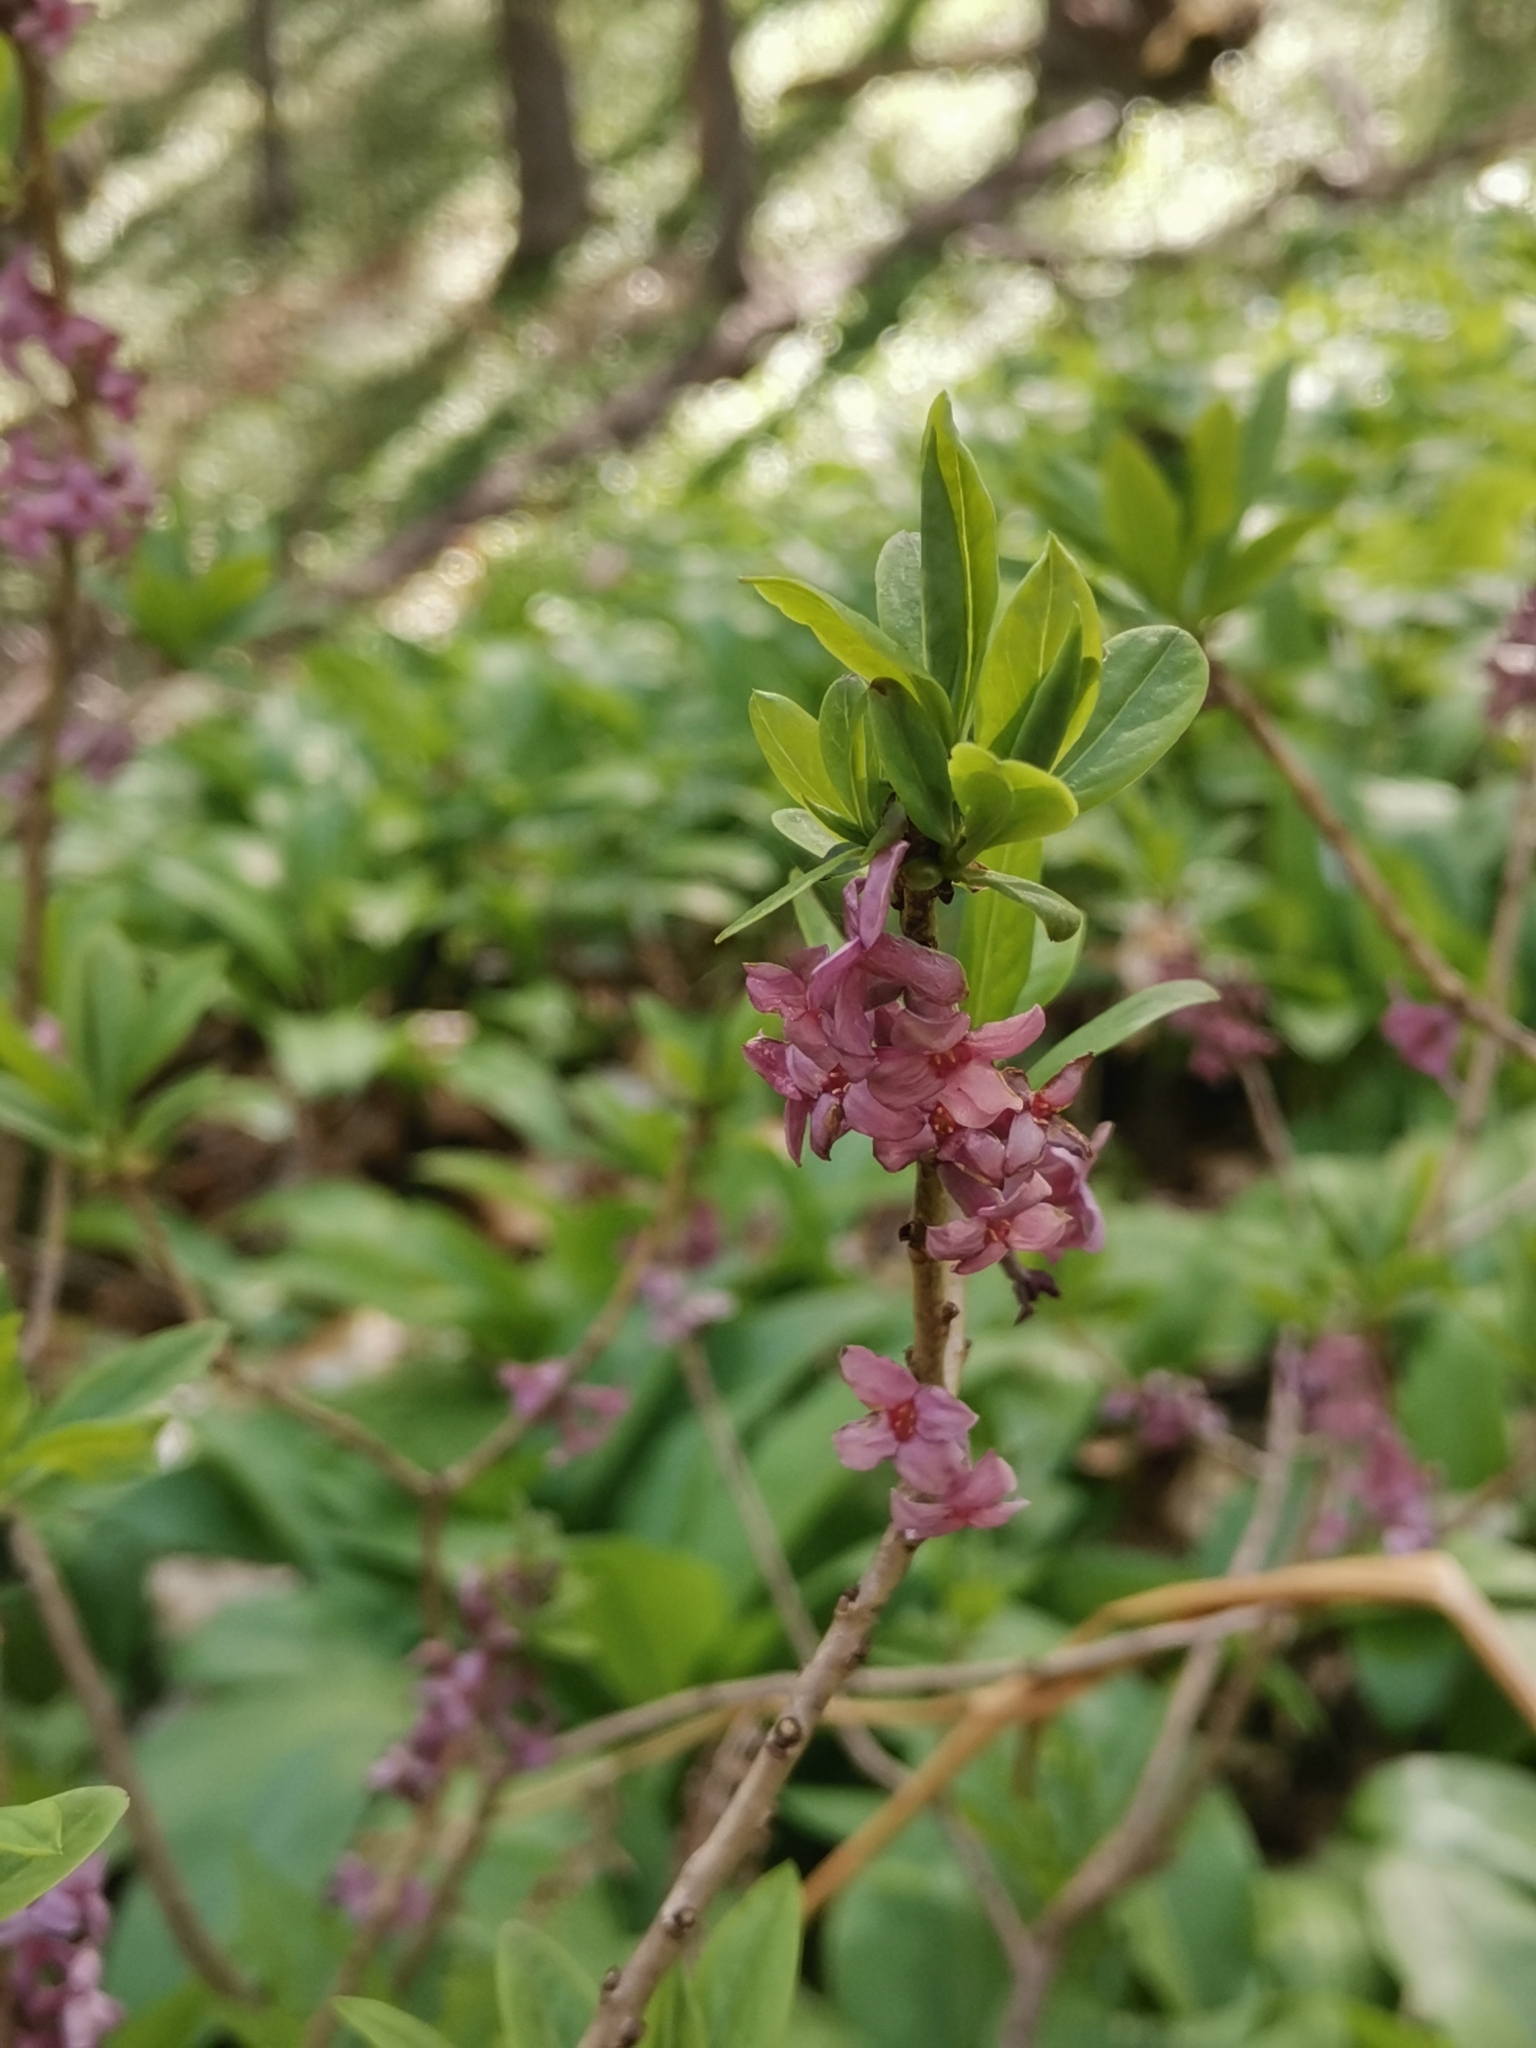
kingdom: Plantae
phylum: Tracheophyta
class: Magnoliopsida
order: Malvales
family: Thymelaeaceae
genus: Daphne
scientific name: Daphne mezereum
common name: Mezereon
